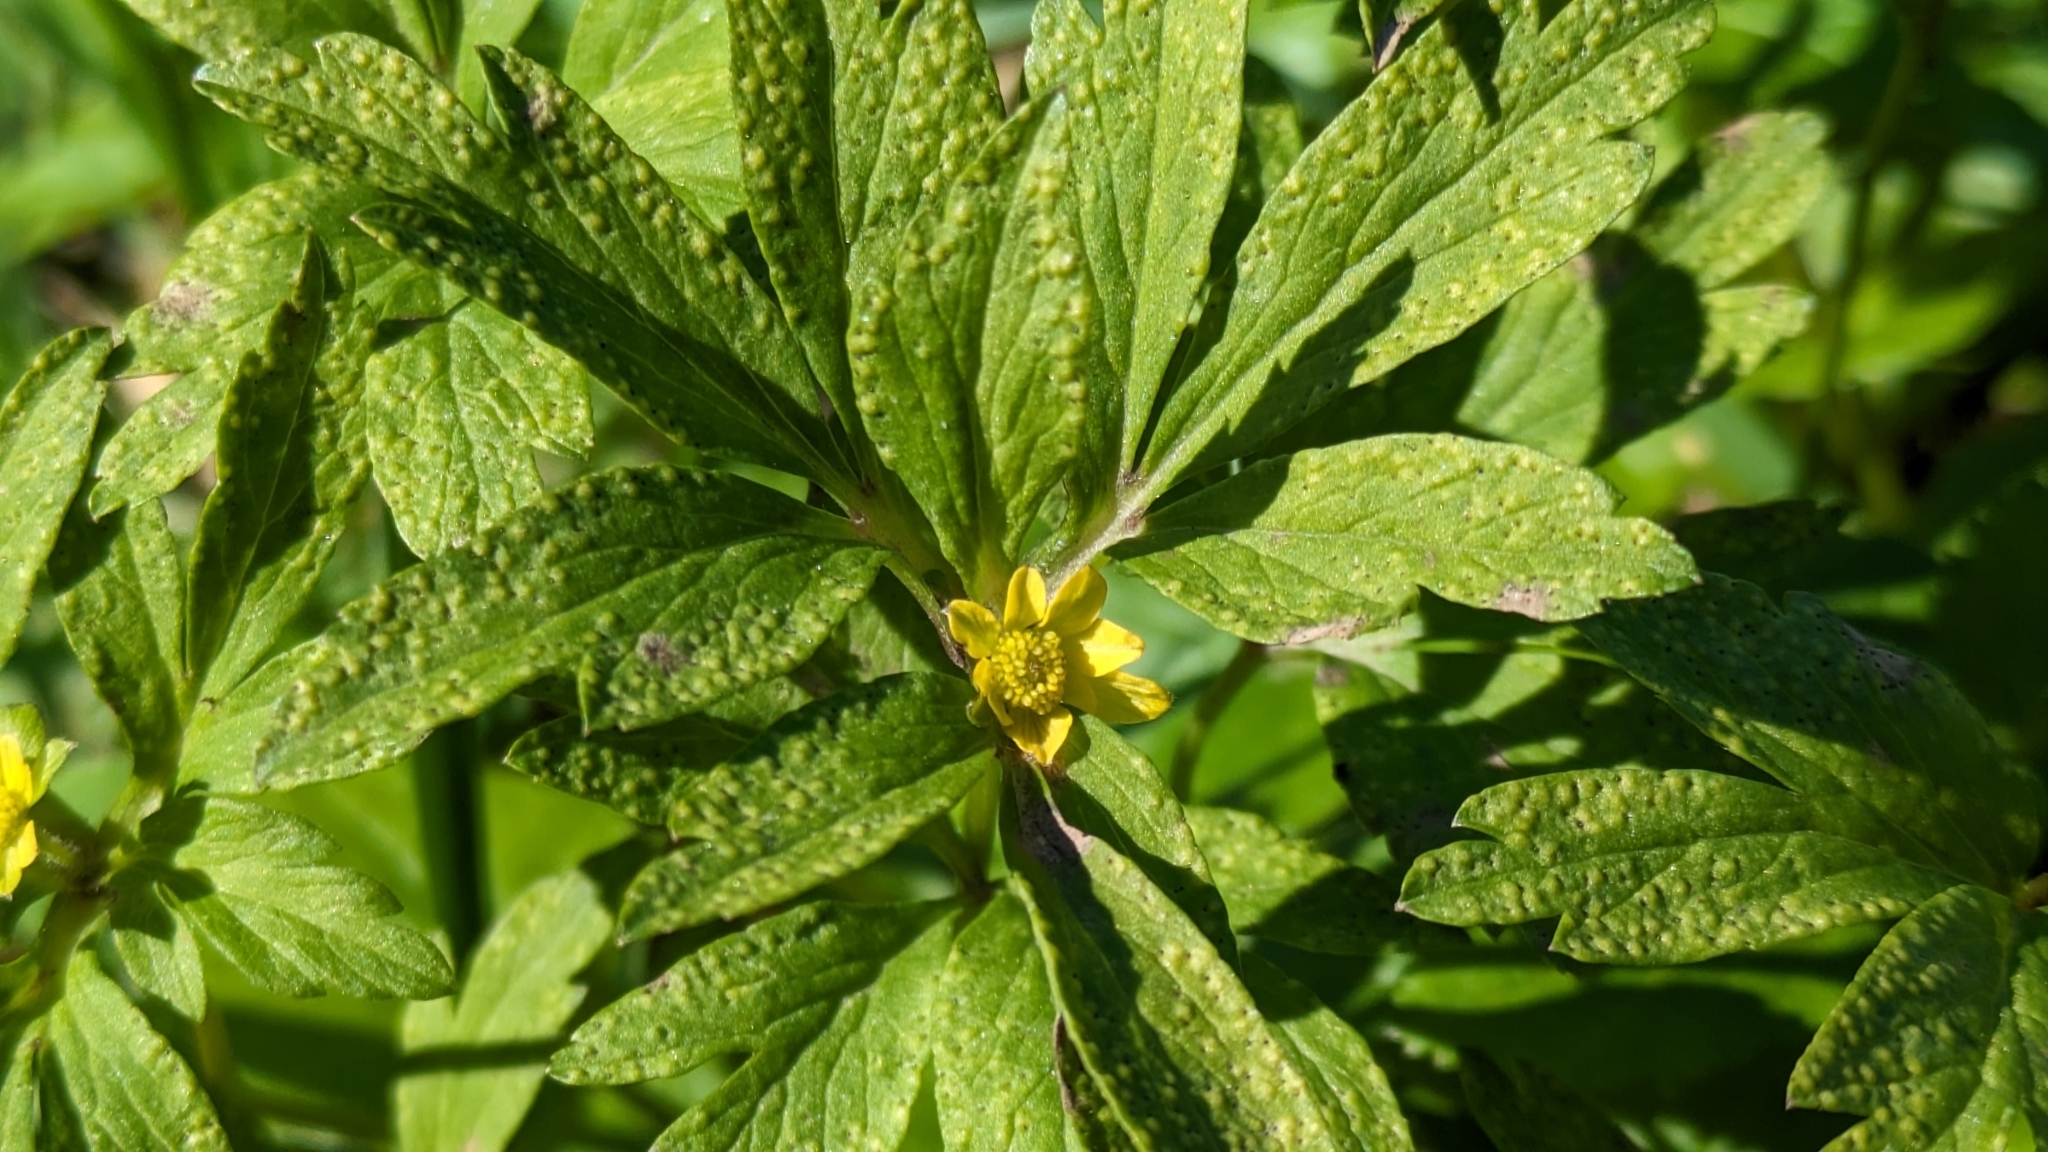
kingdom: Plantae
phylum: Tracheophyta
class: Magnoliopsida
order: Ranunculales
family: Ranunculaceae
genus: Anemone
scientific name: Anemone ranunculoides
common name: Yellow anemone
